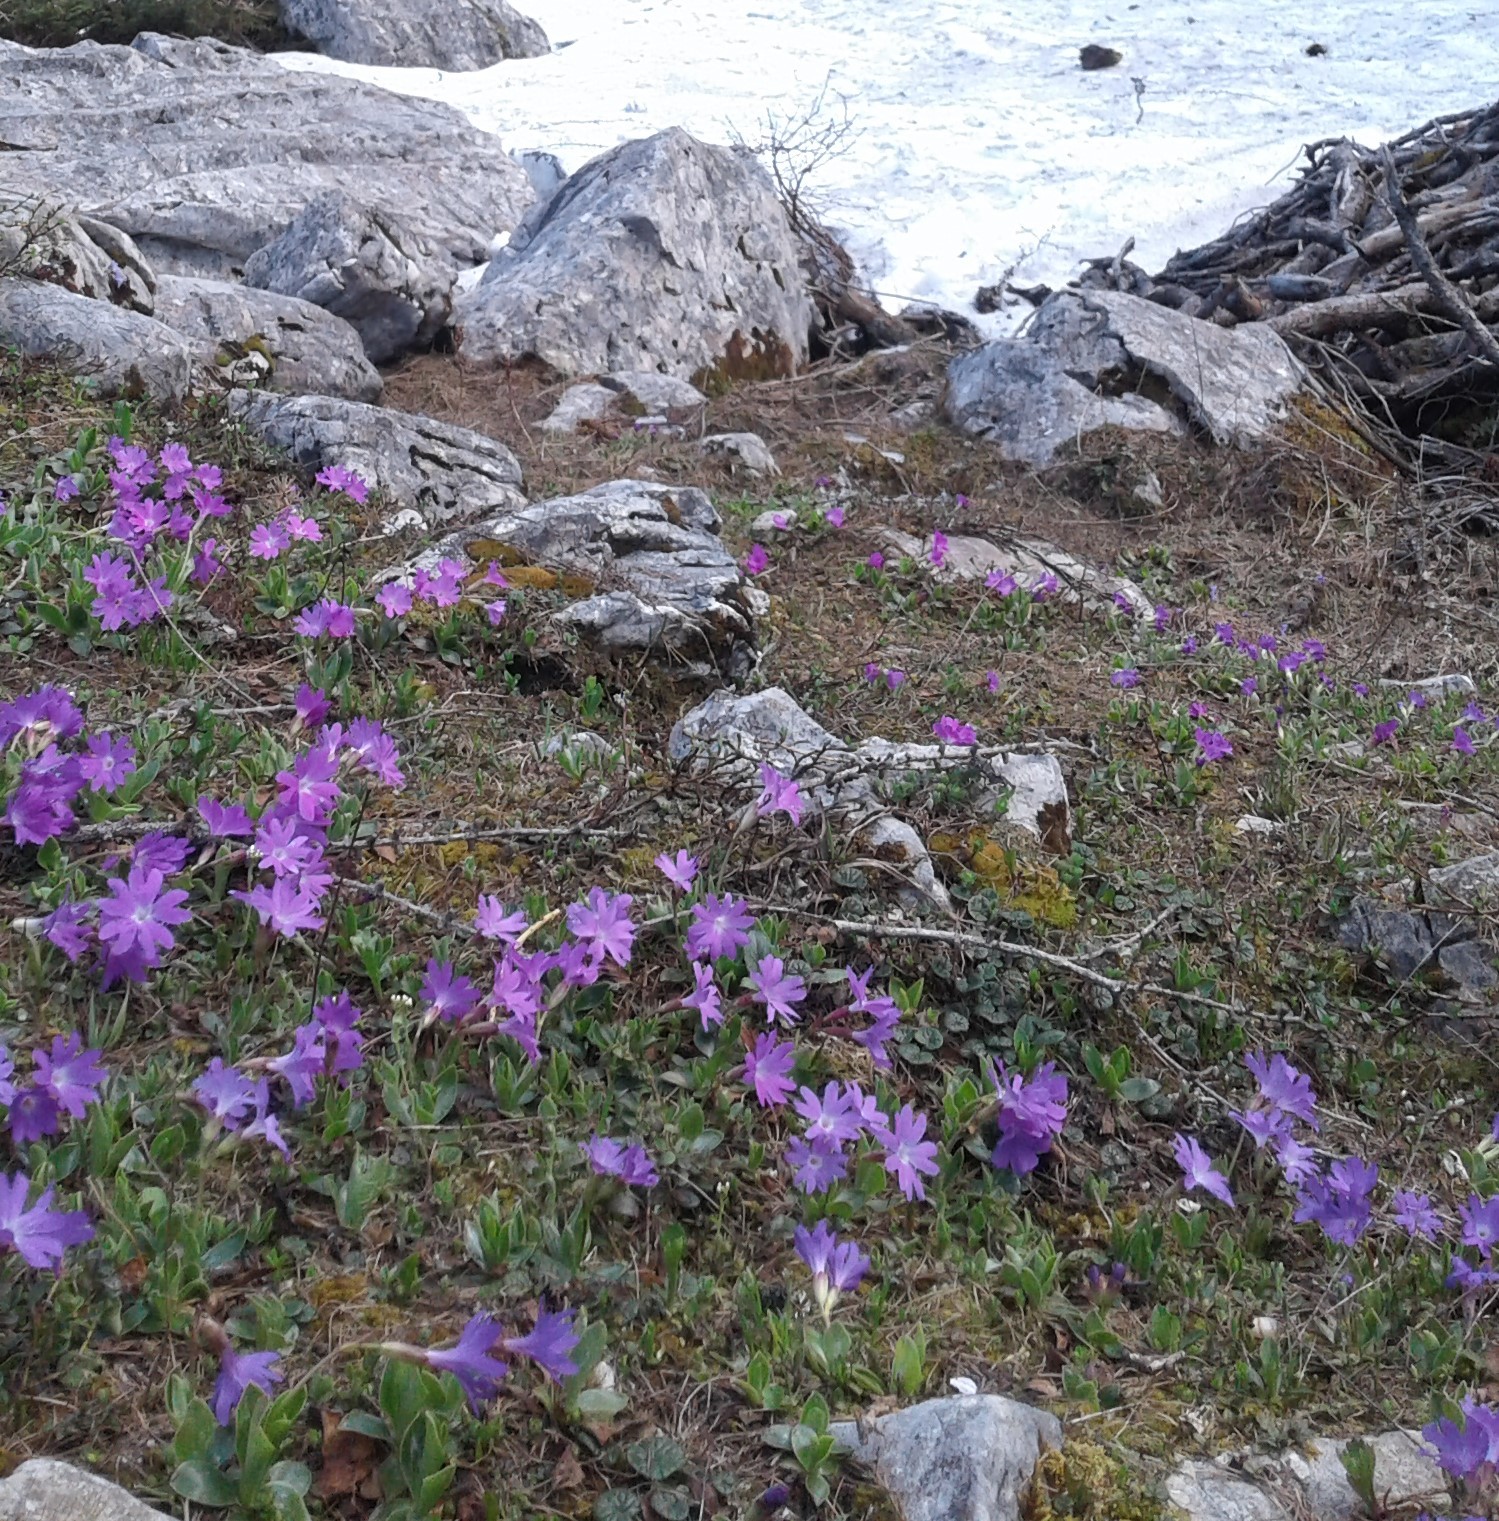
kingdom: Plantae
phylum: Tracheophyta
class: Magnoliopsida
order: Ericales
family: Primulaceae
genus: Primula
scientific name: Primula clusiana
